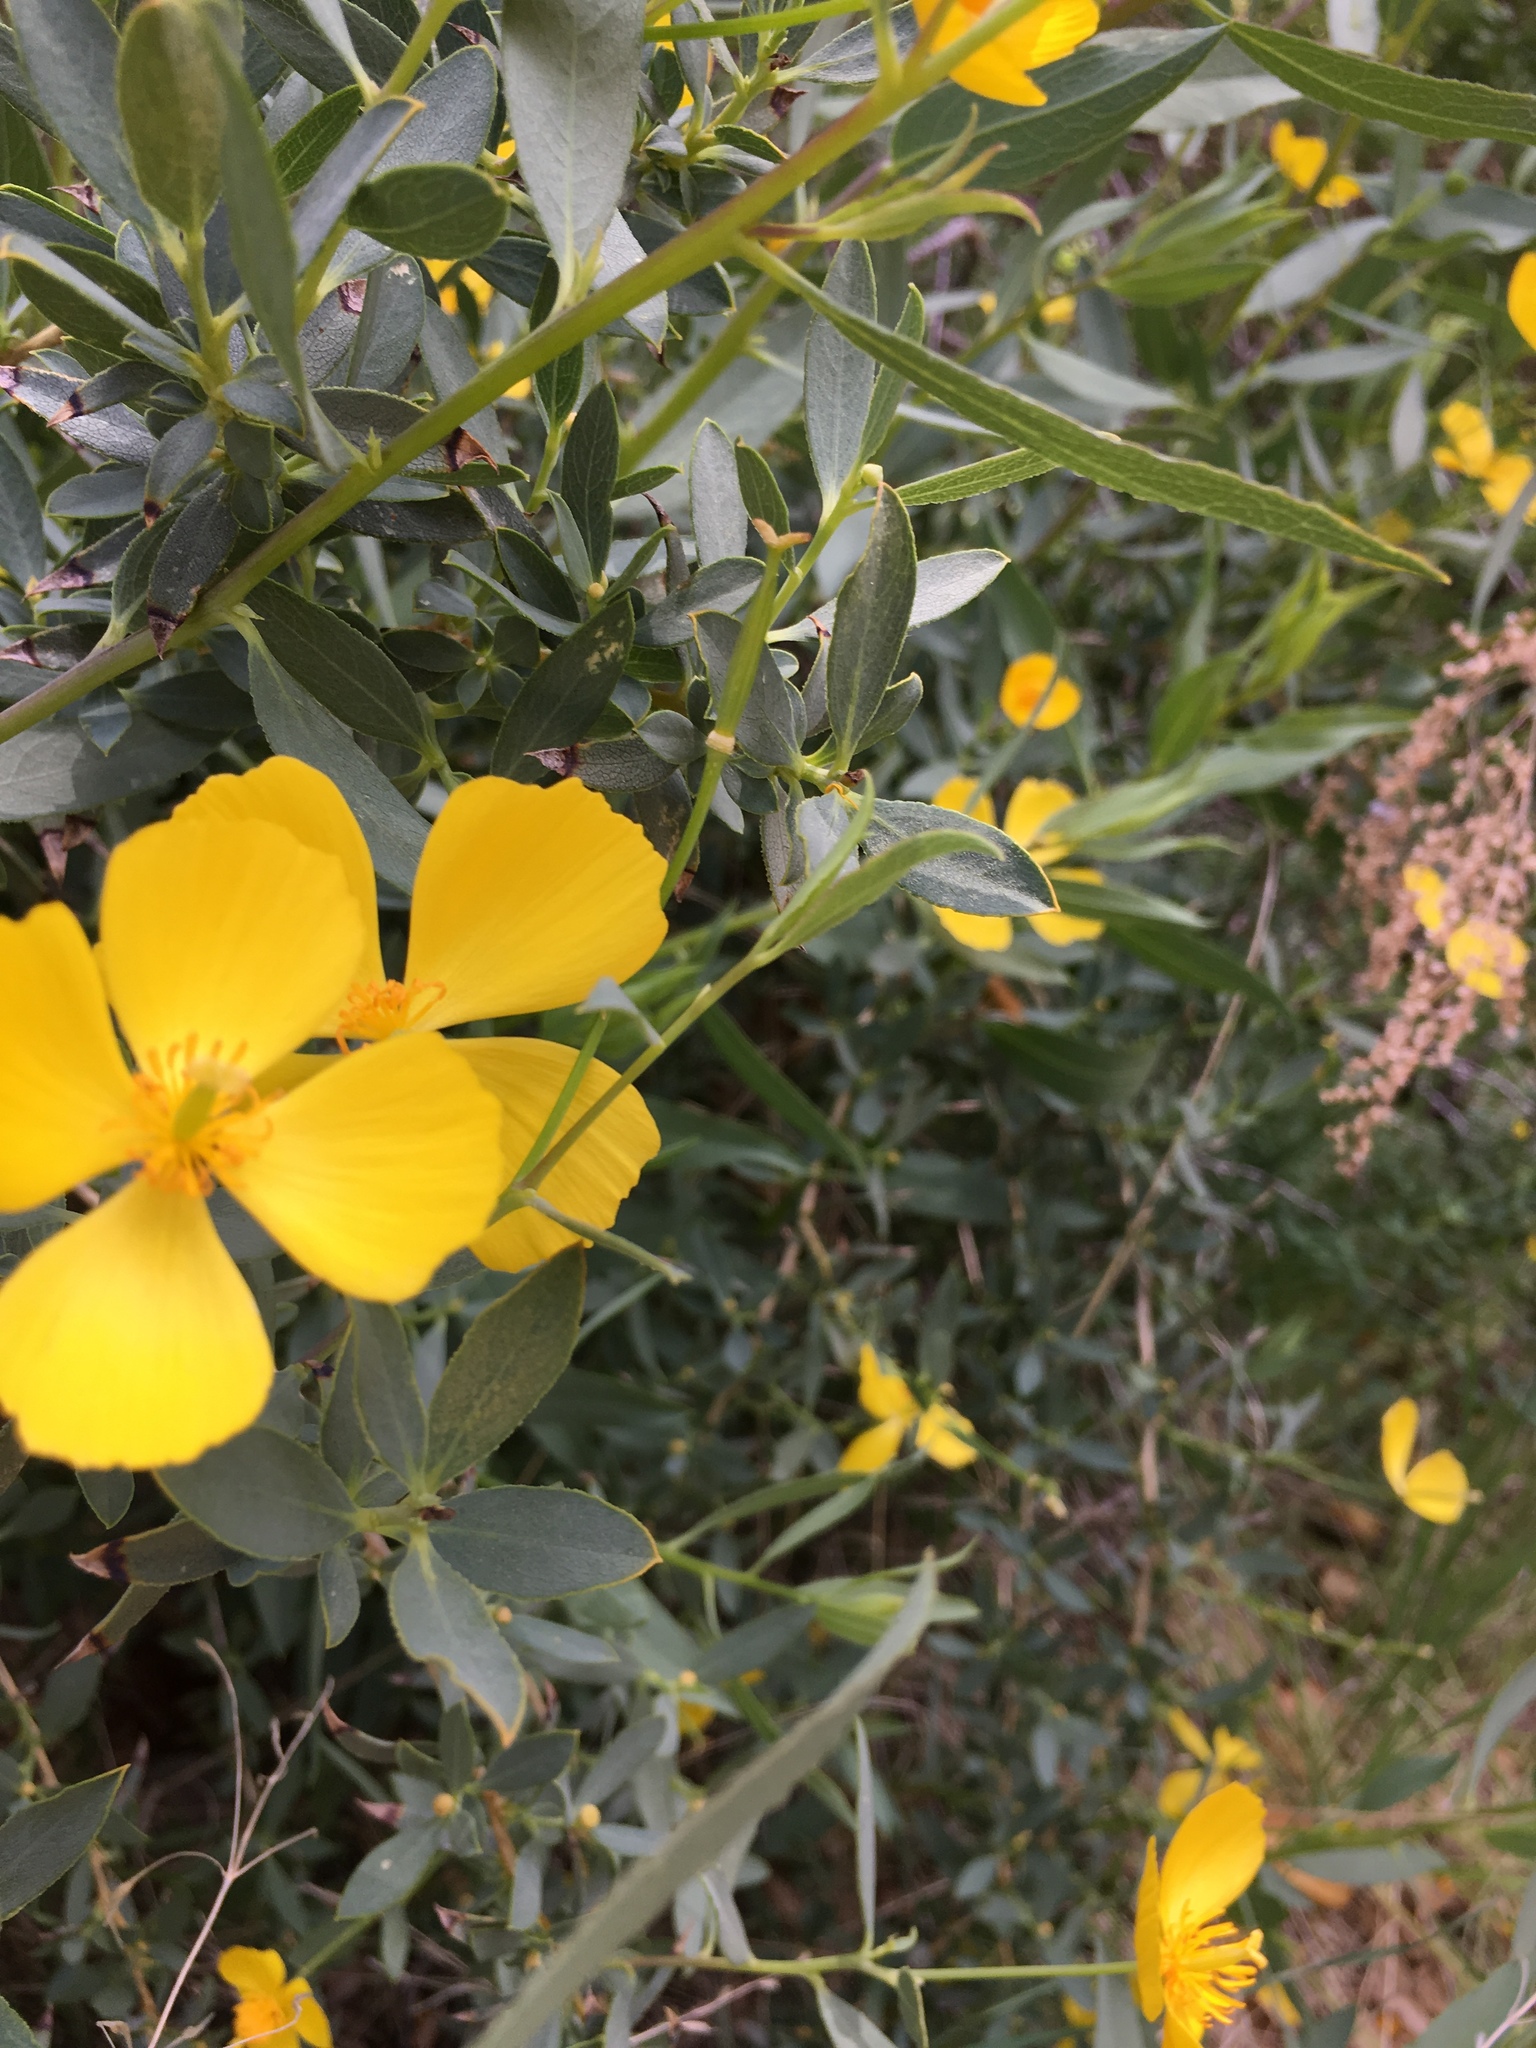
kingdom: Plantae
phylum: Tracheophyta
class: Magnoliopsida
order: Ranunculales
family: Papaveraceae
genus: Dendromecon
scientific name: Dendromecon rigida
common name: Tree poppy
